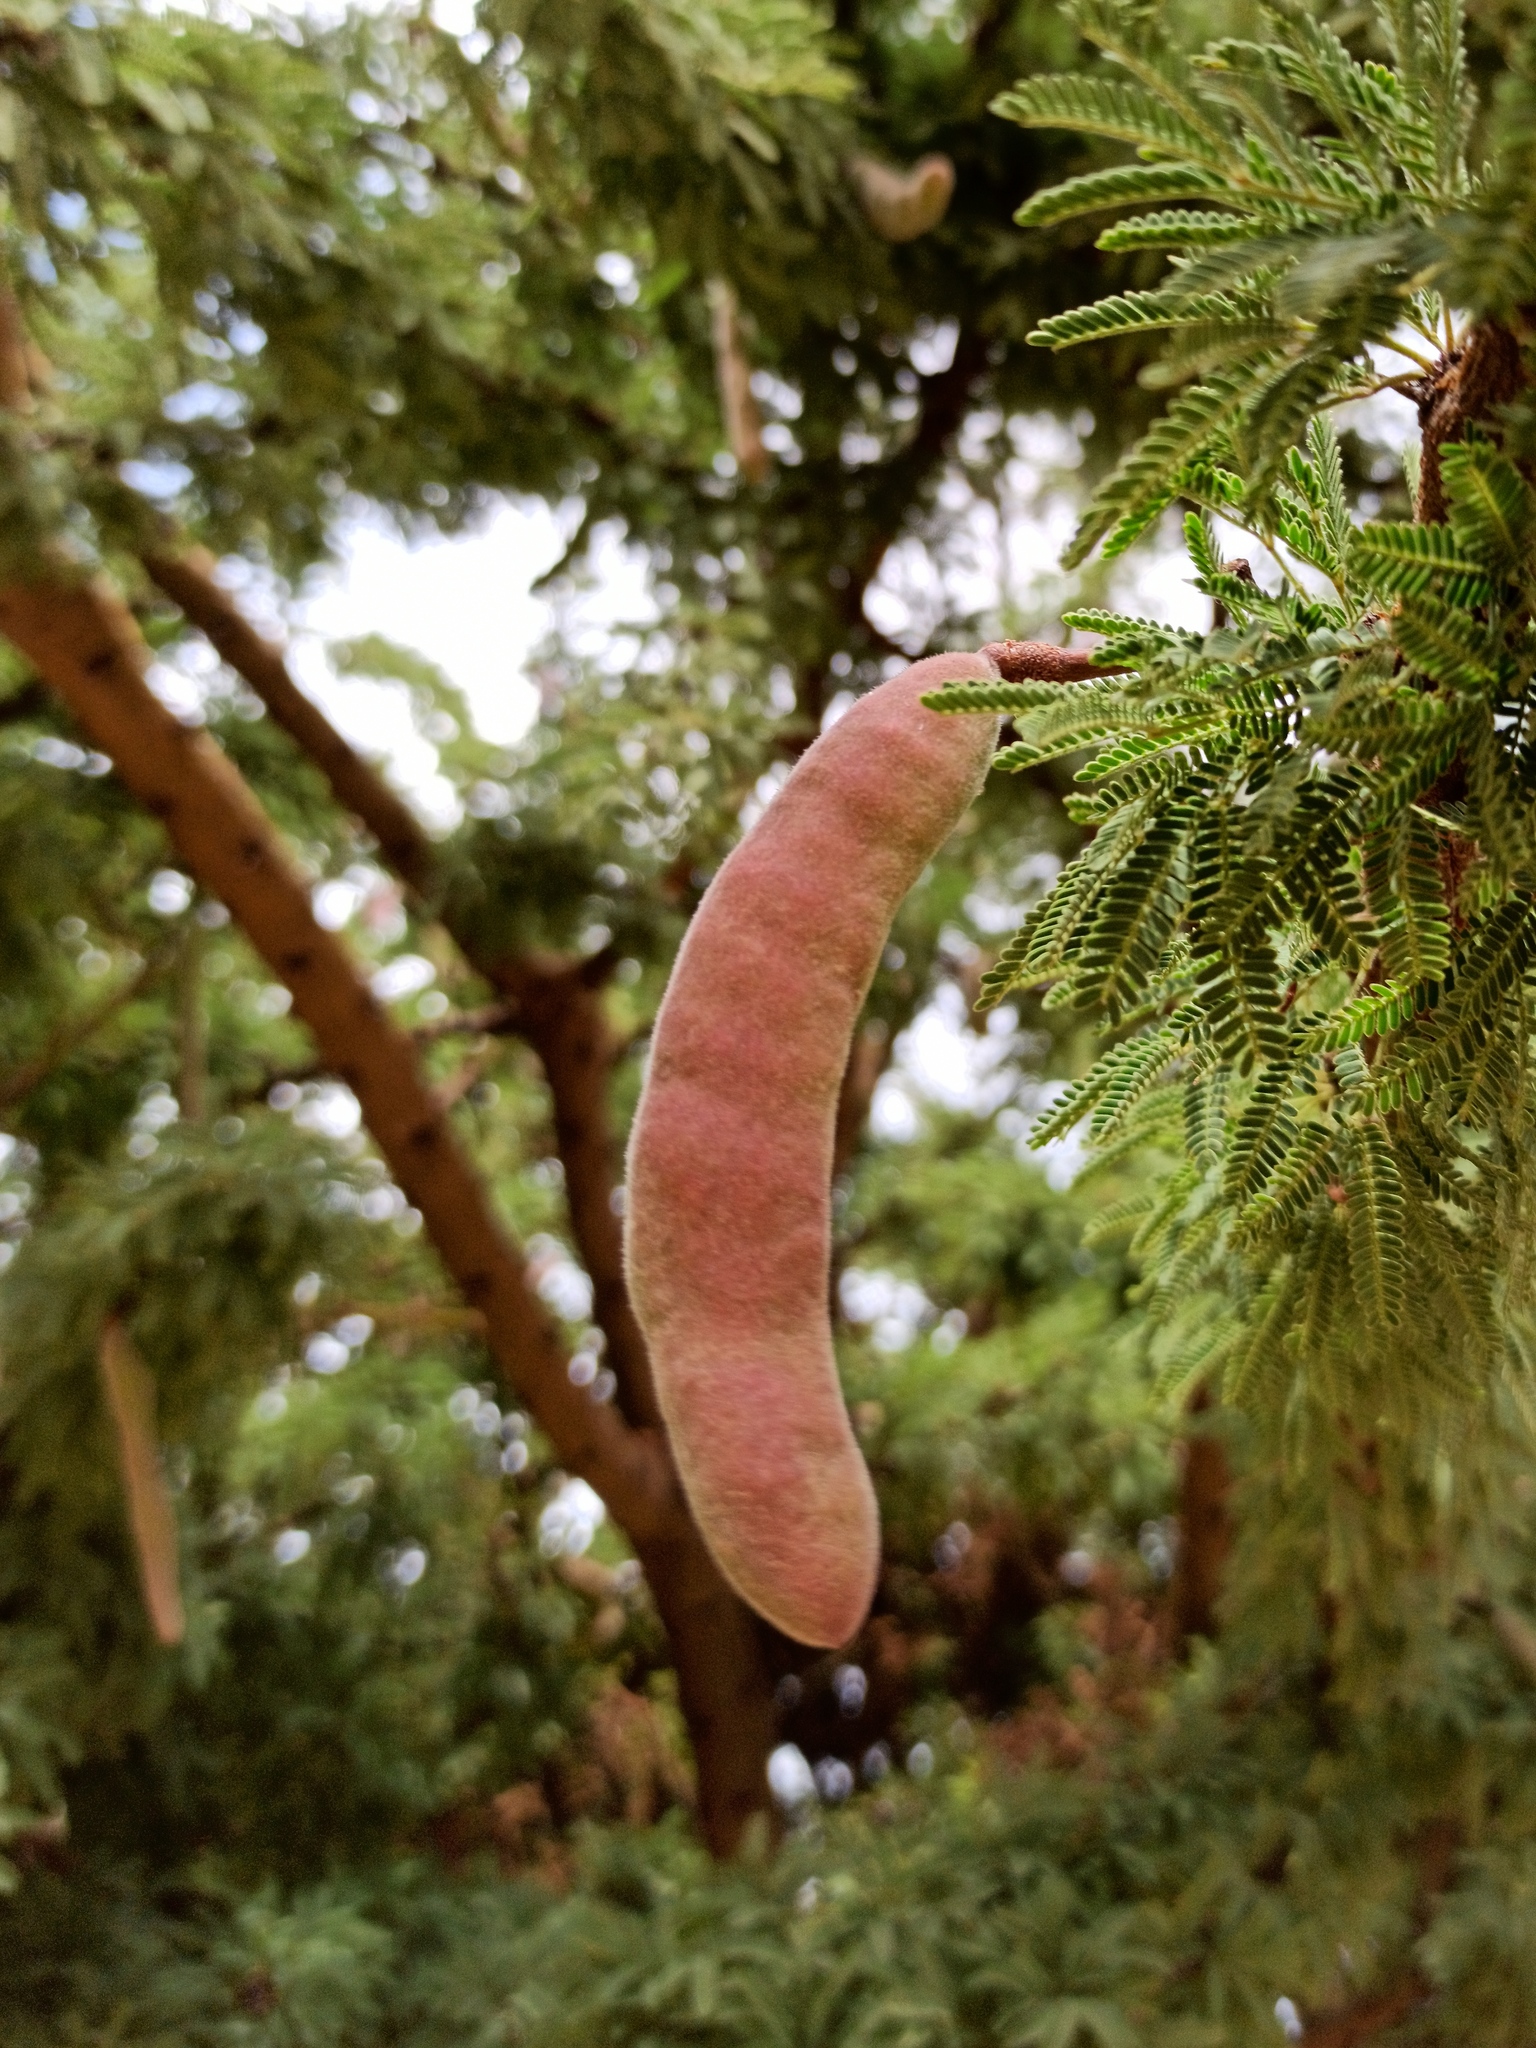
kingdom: Plantae
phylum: Tracheophyta
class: Magnoliopsida
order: Fabales
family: Fabaceae
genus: Vachellia
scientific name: Vachellia schaffneri
